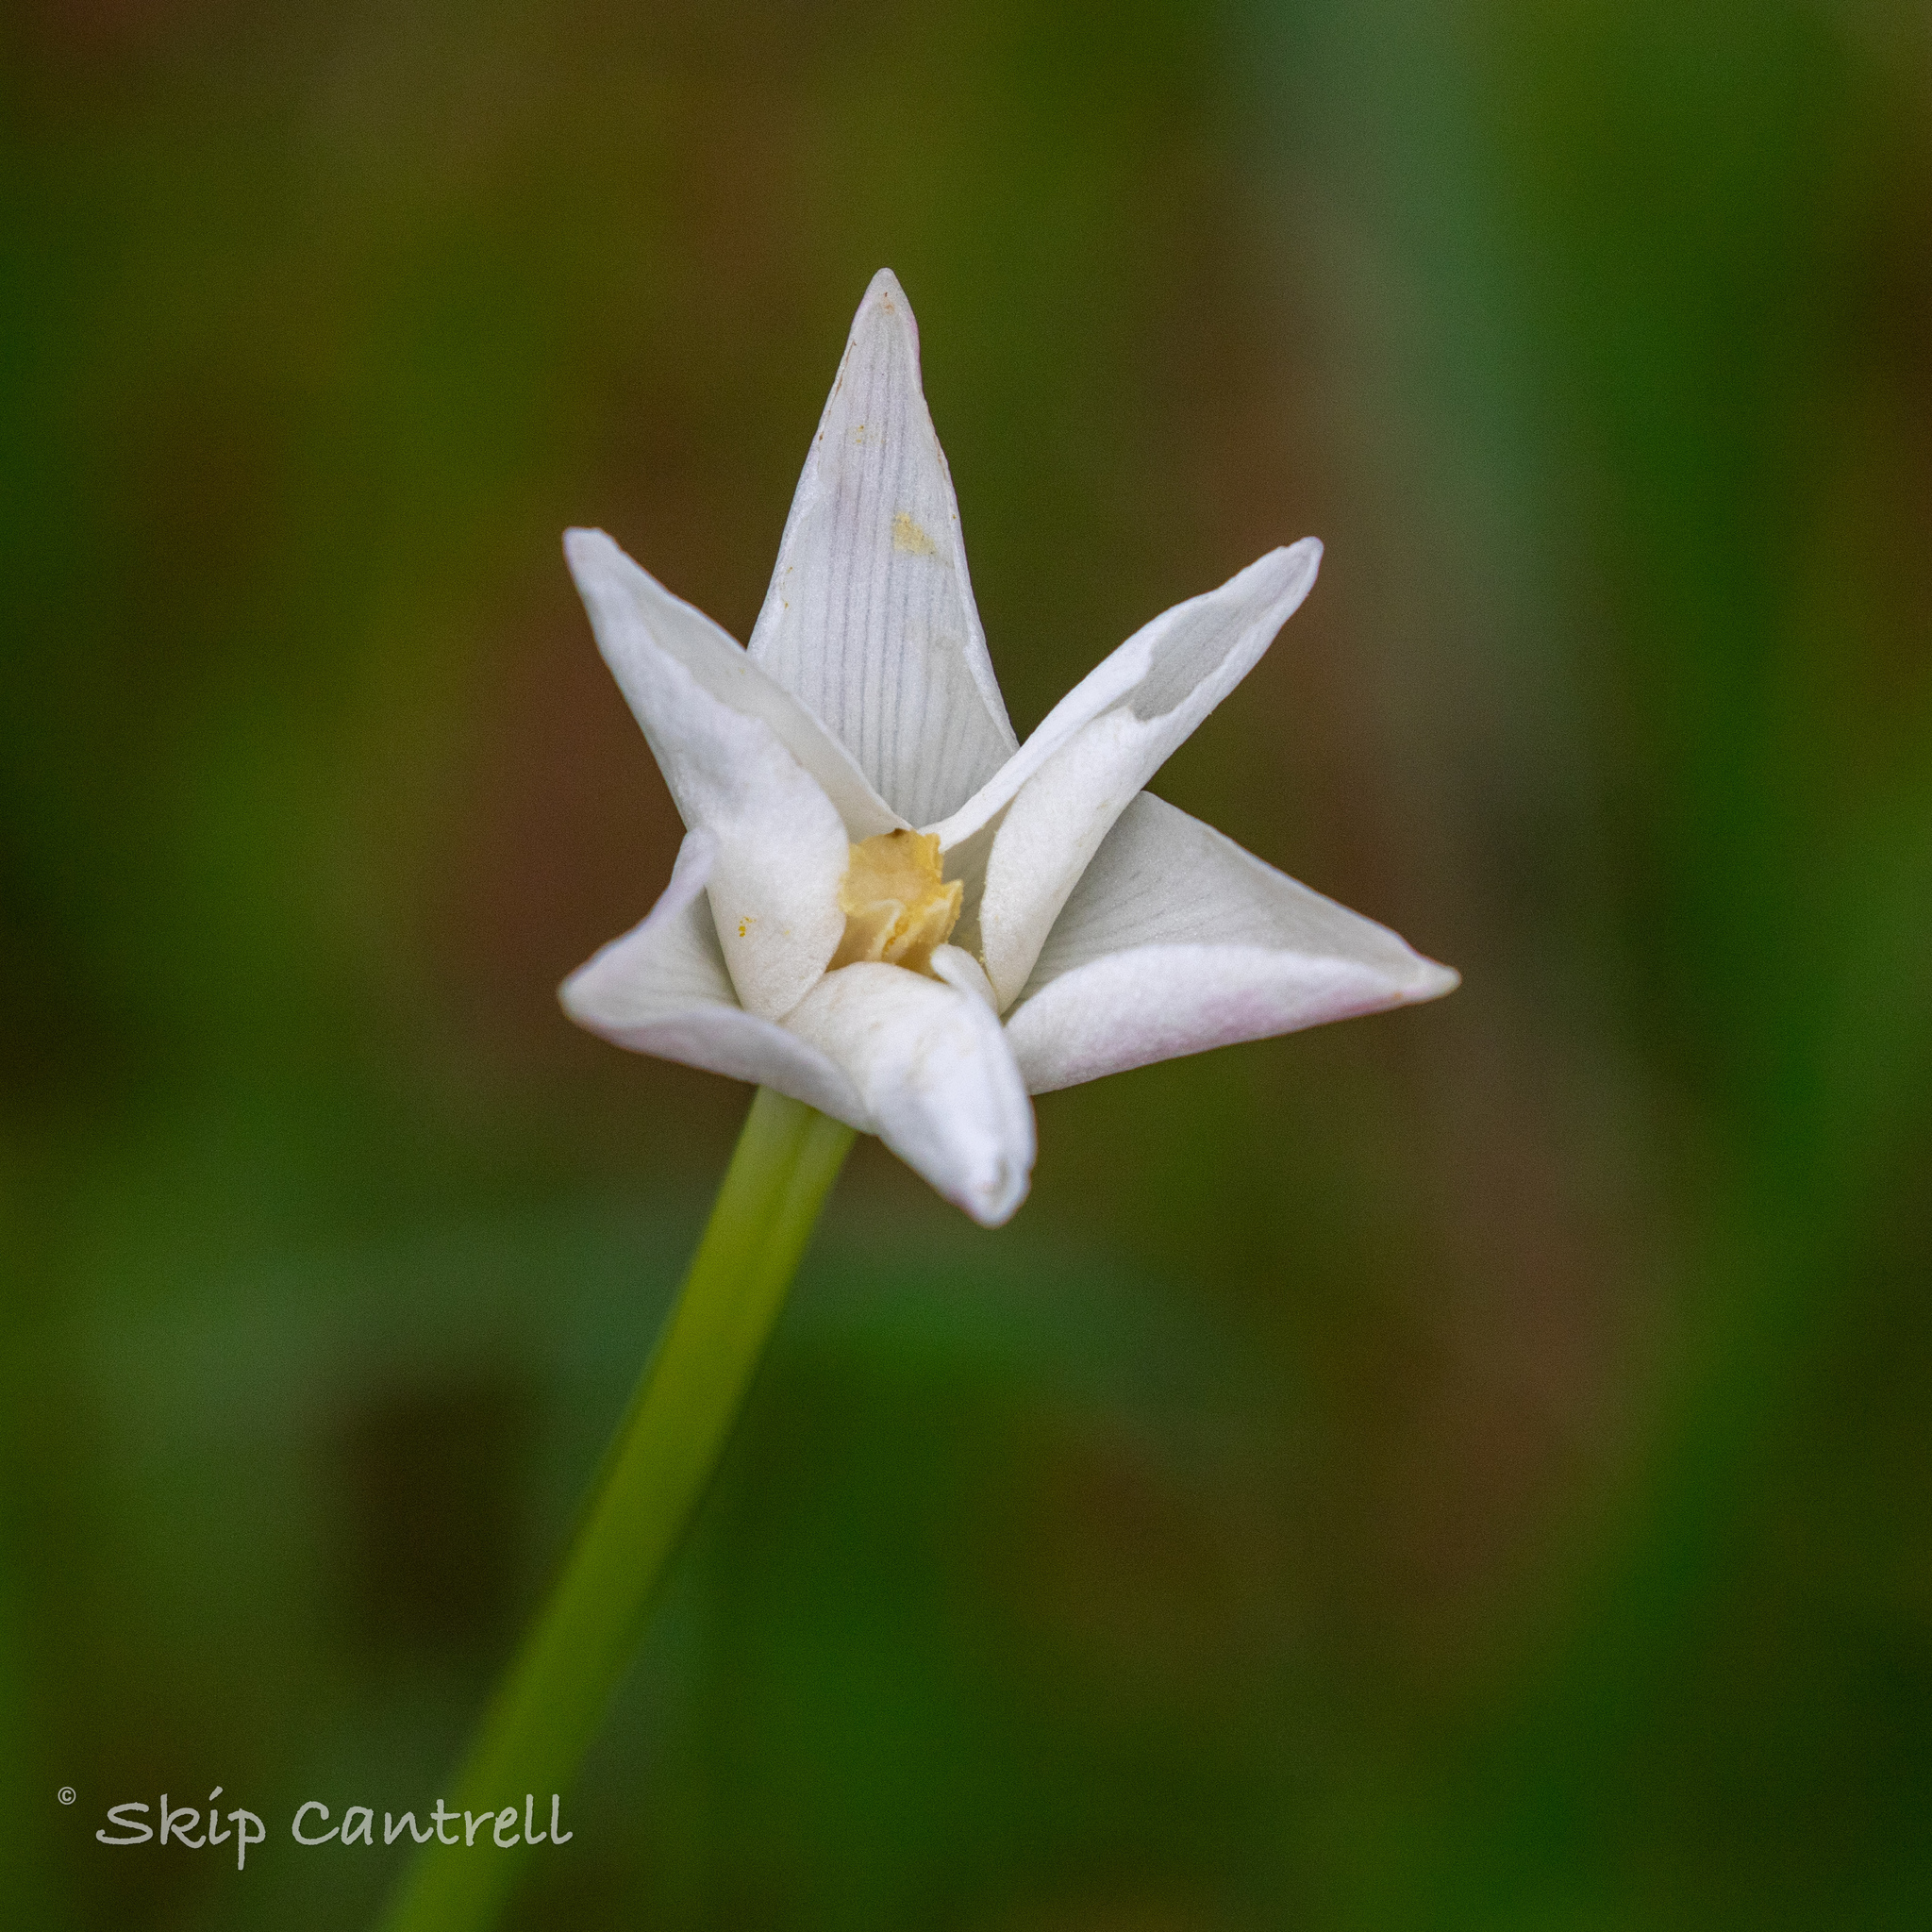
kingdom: Plantae
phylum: Tracheophyta
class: Liliopsida
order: Asparagales
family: Amaryllidaceae
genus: Zephyranthes
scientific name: Zephyranthes chlorosolen
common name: Evening rain-lily
